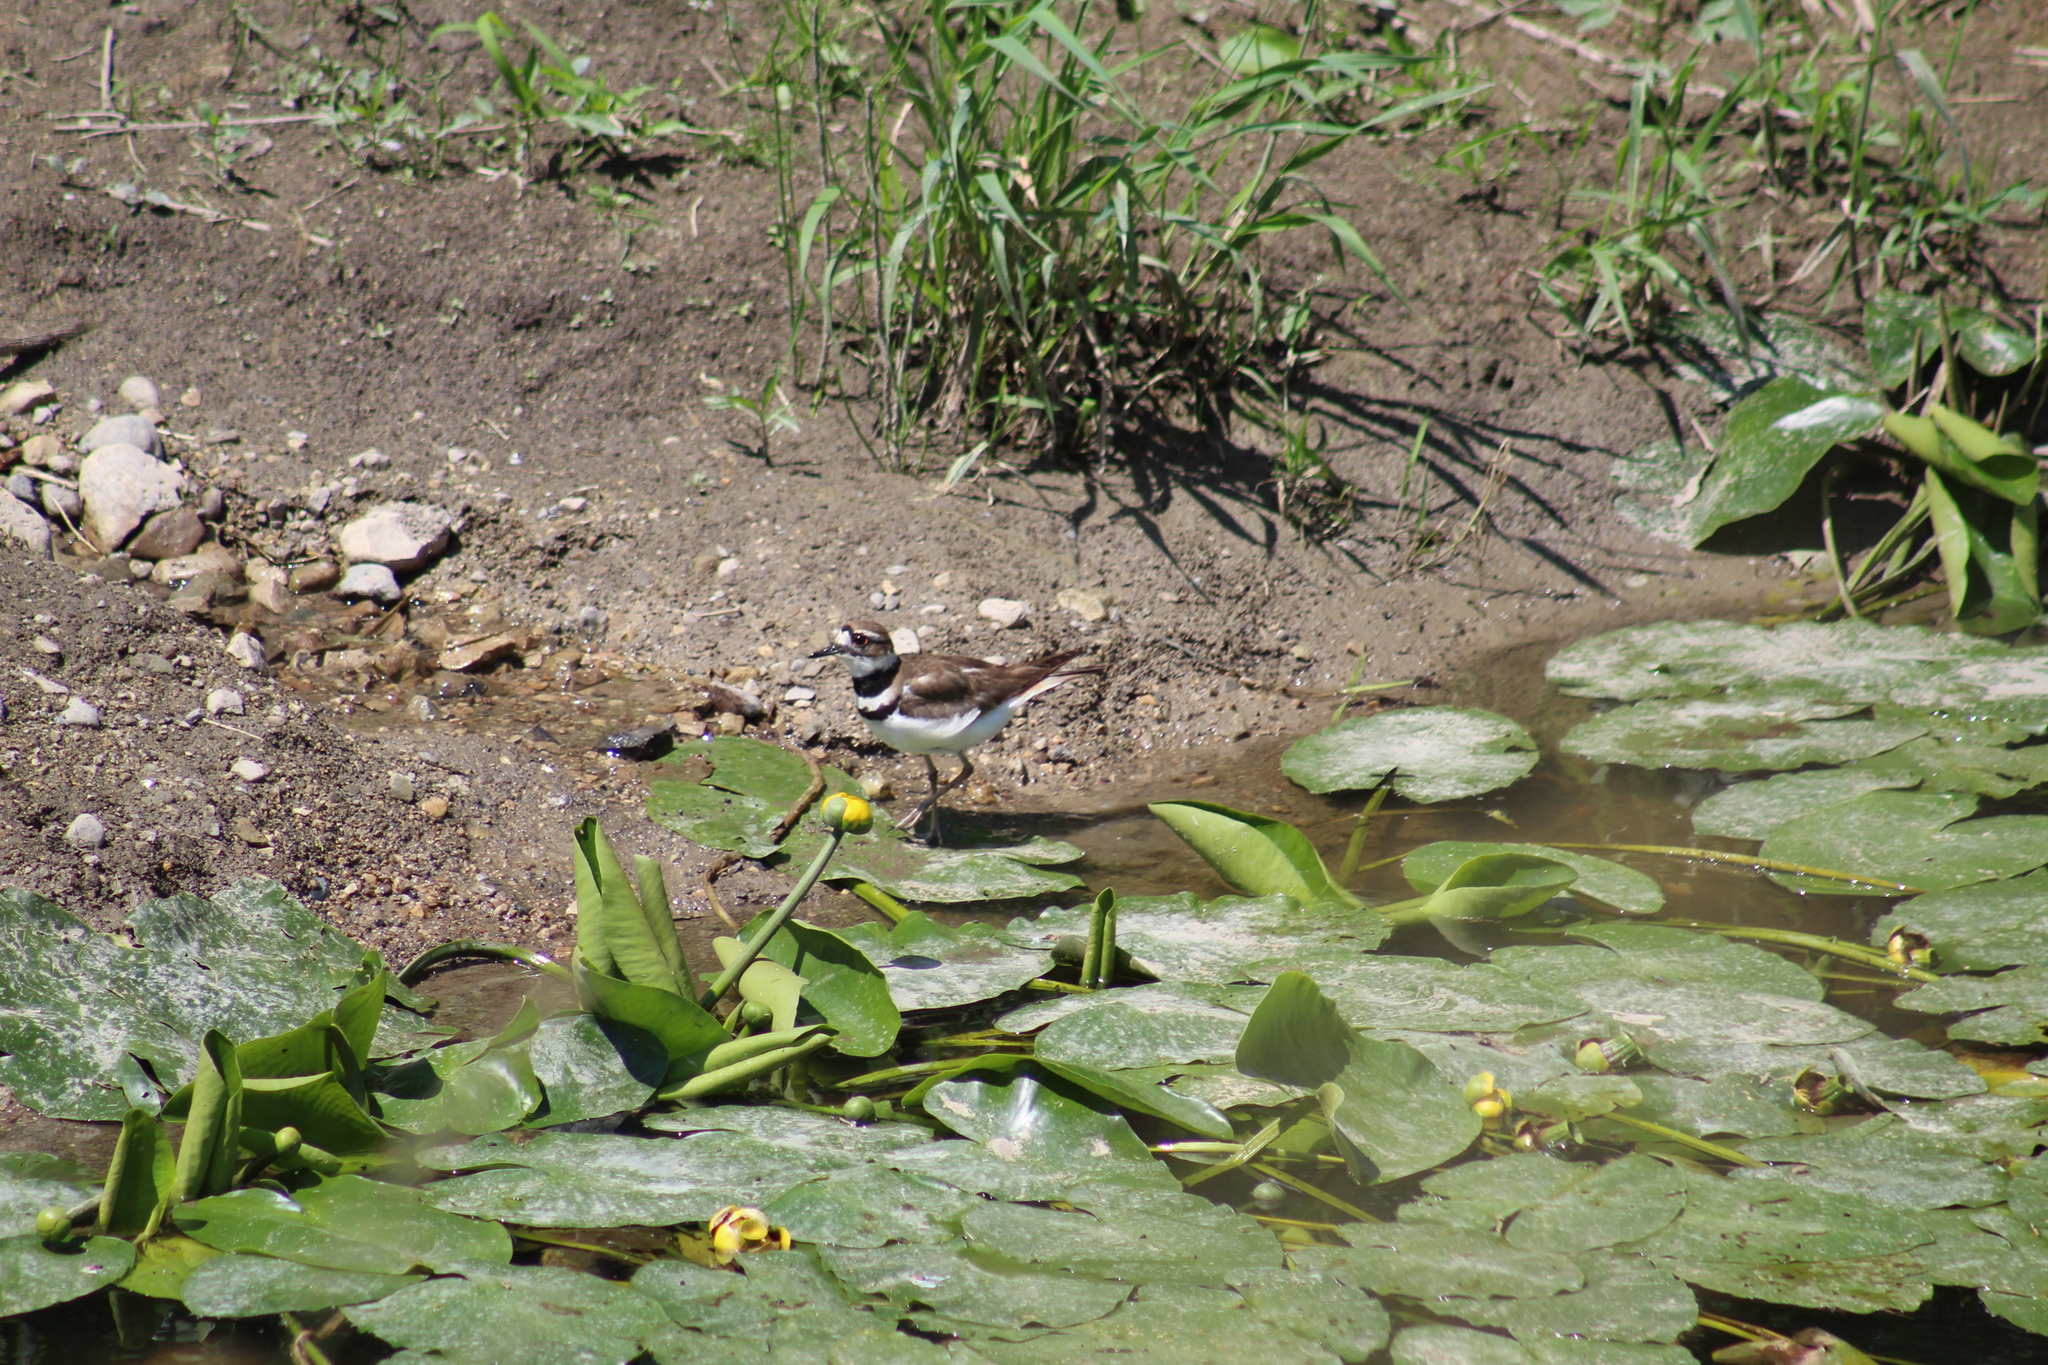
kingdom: Animalia
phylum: Chordata
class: Aves
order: Charadriiformes
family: Charadriidae
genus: Charadrius
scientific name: Charadrius vociferus
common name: Killdeer
